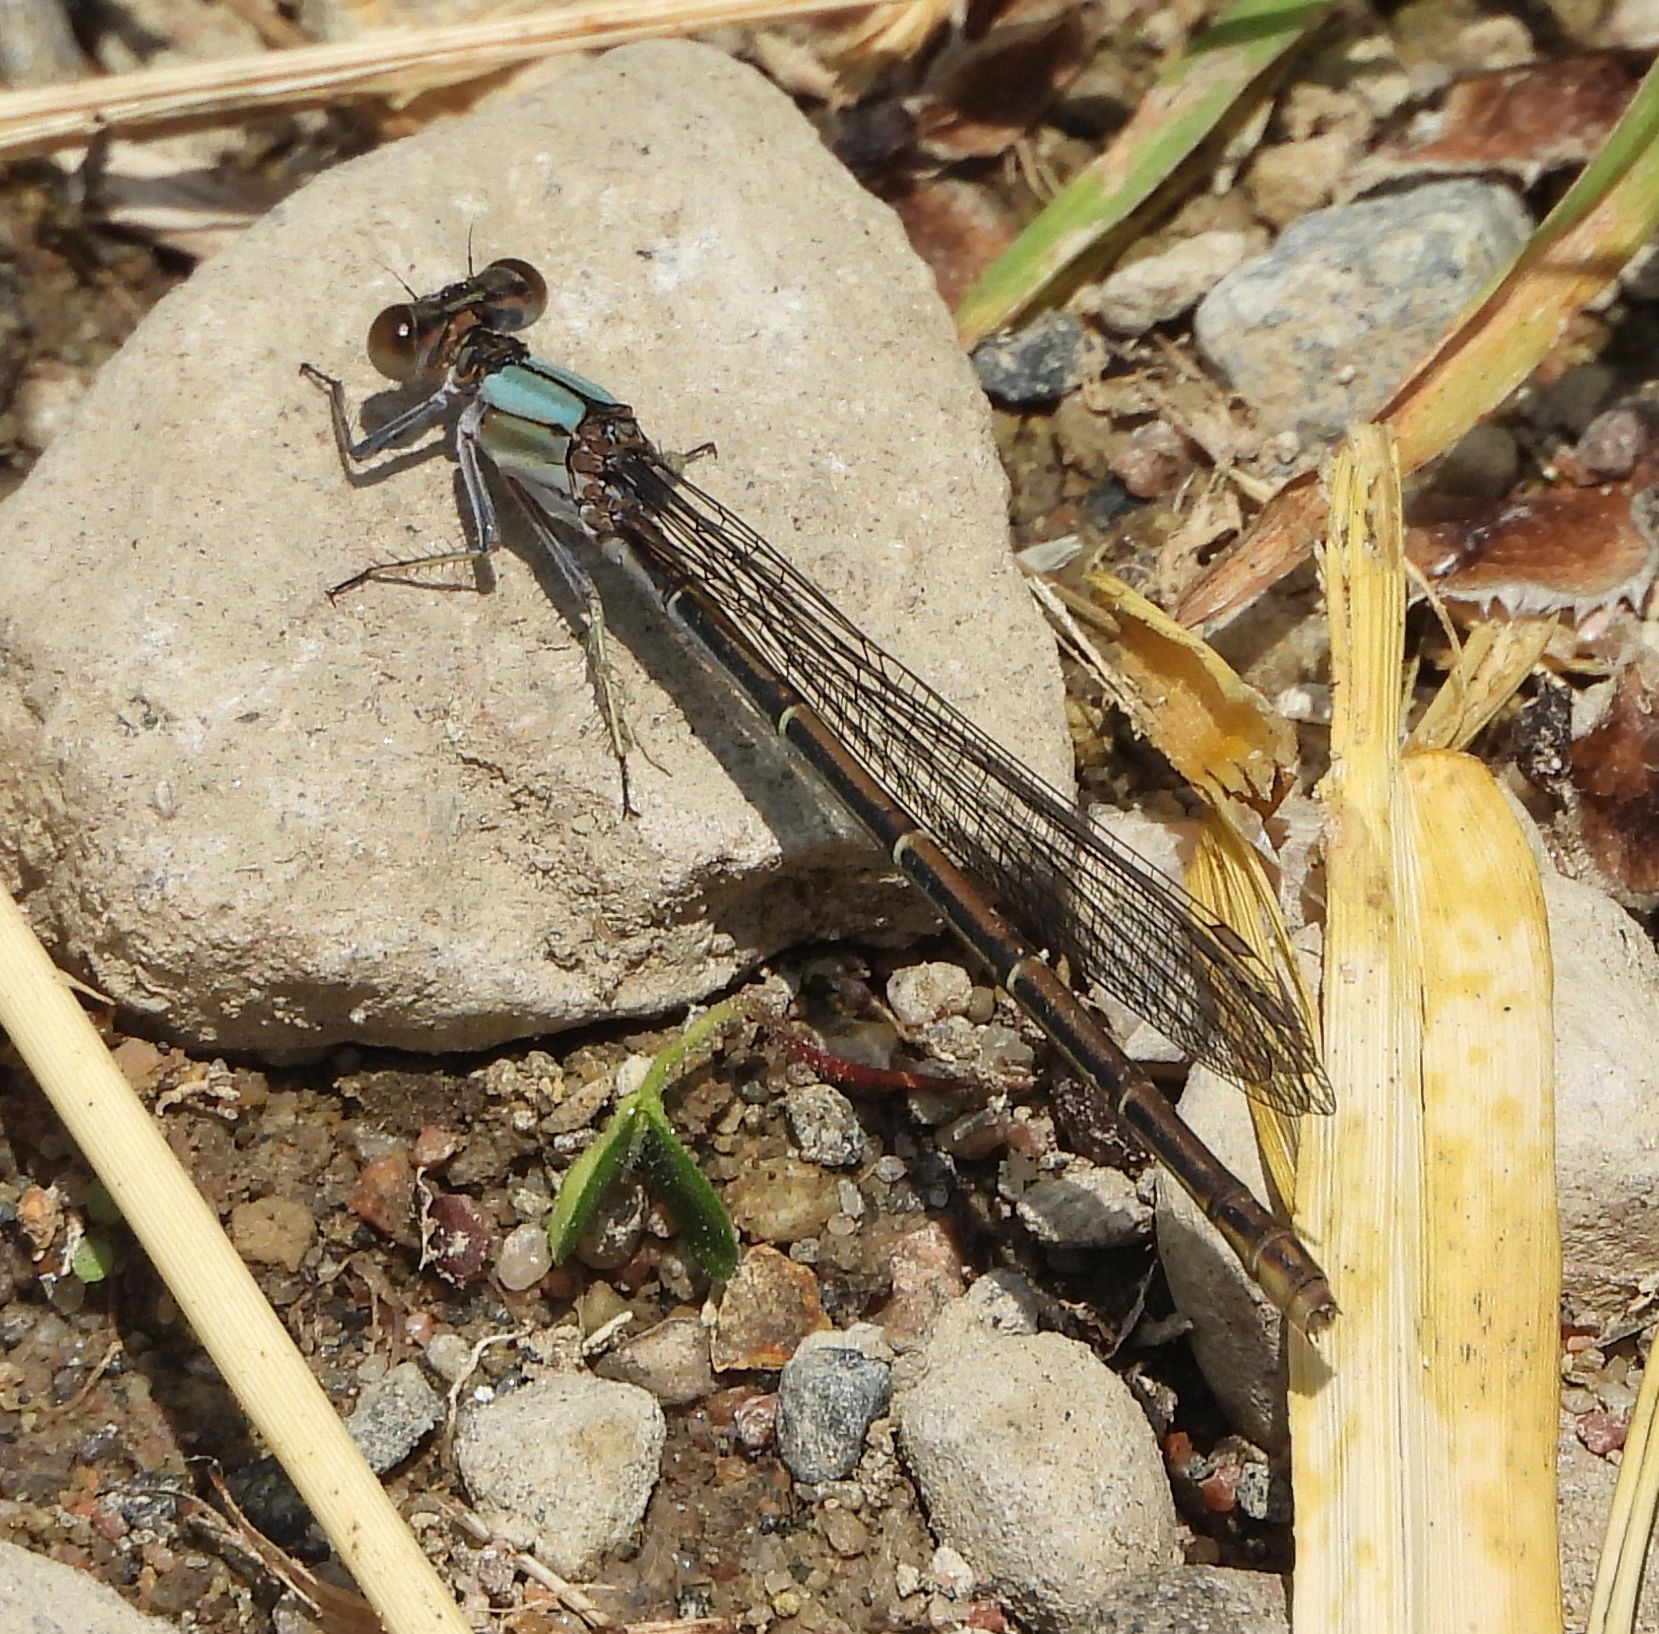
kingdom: Animalia
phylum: Arthropoda
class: Insecta
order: Odonata
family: Coenagrionidae
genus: Argia
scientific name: Argia moesta
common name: Powdered dancer
